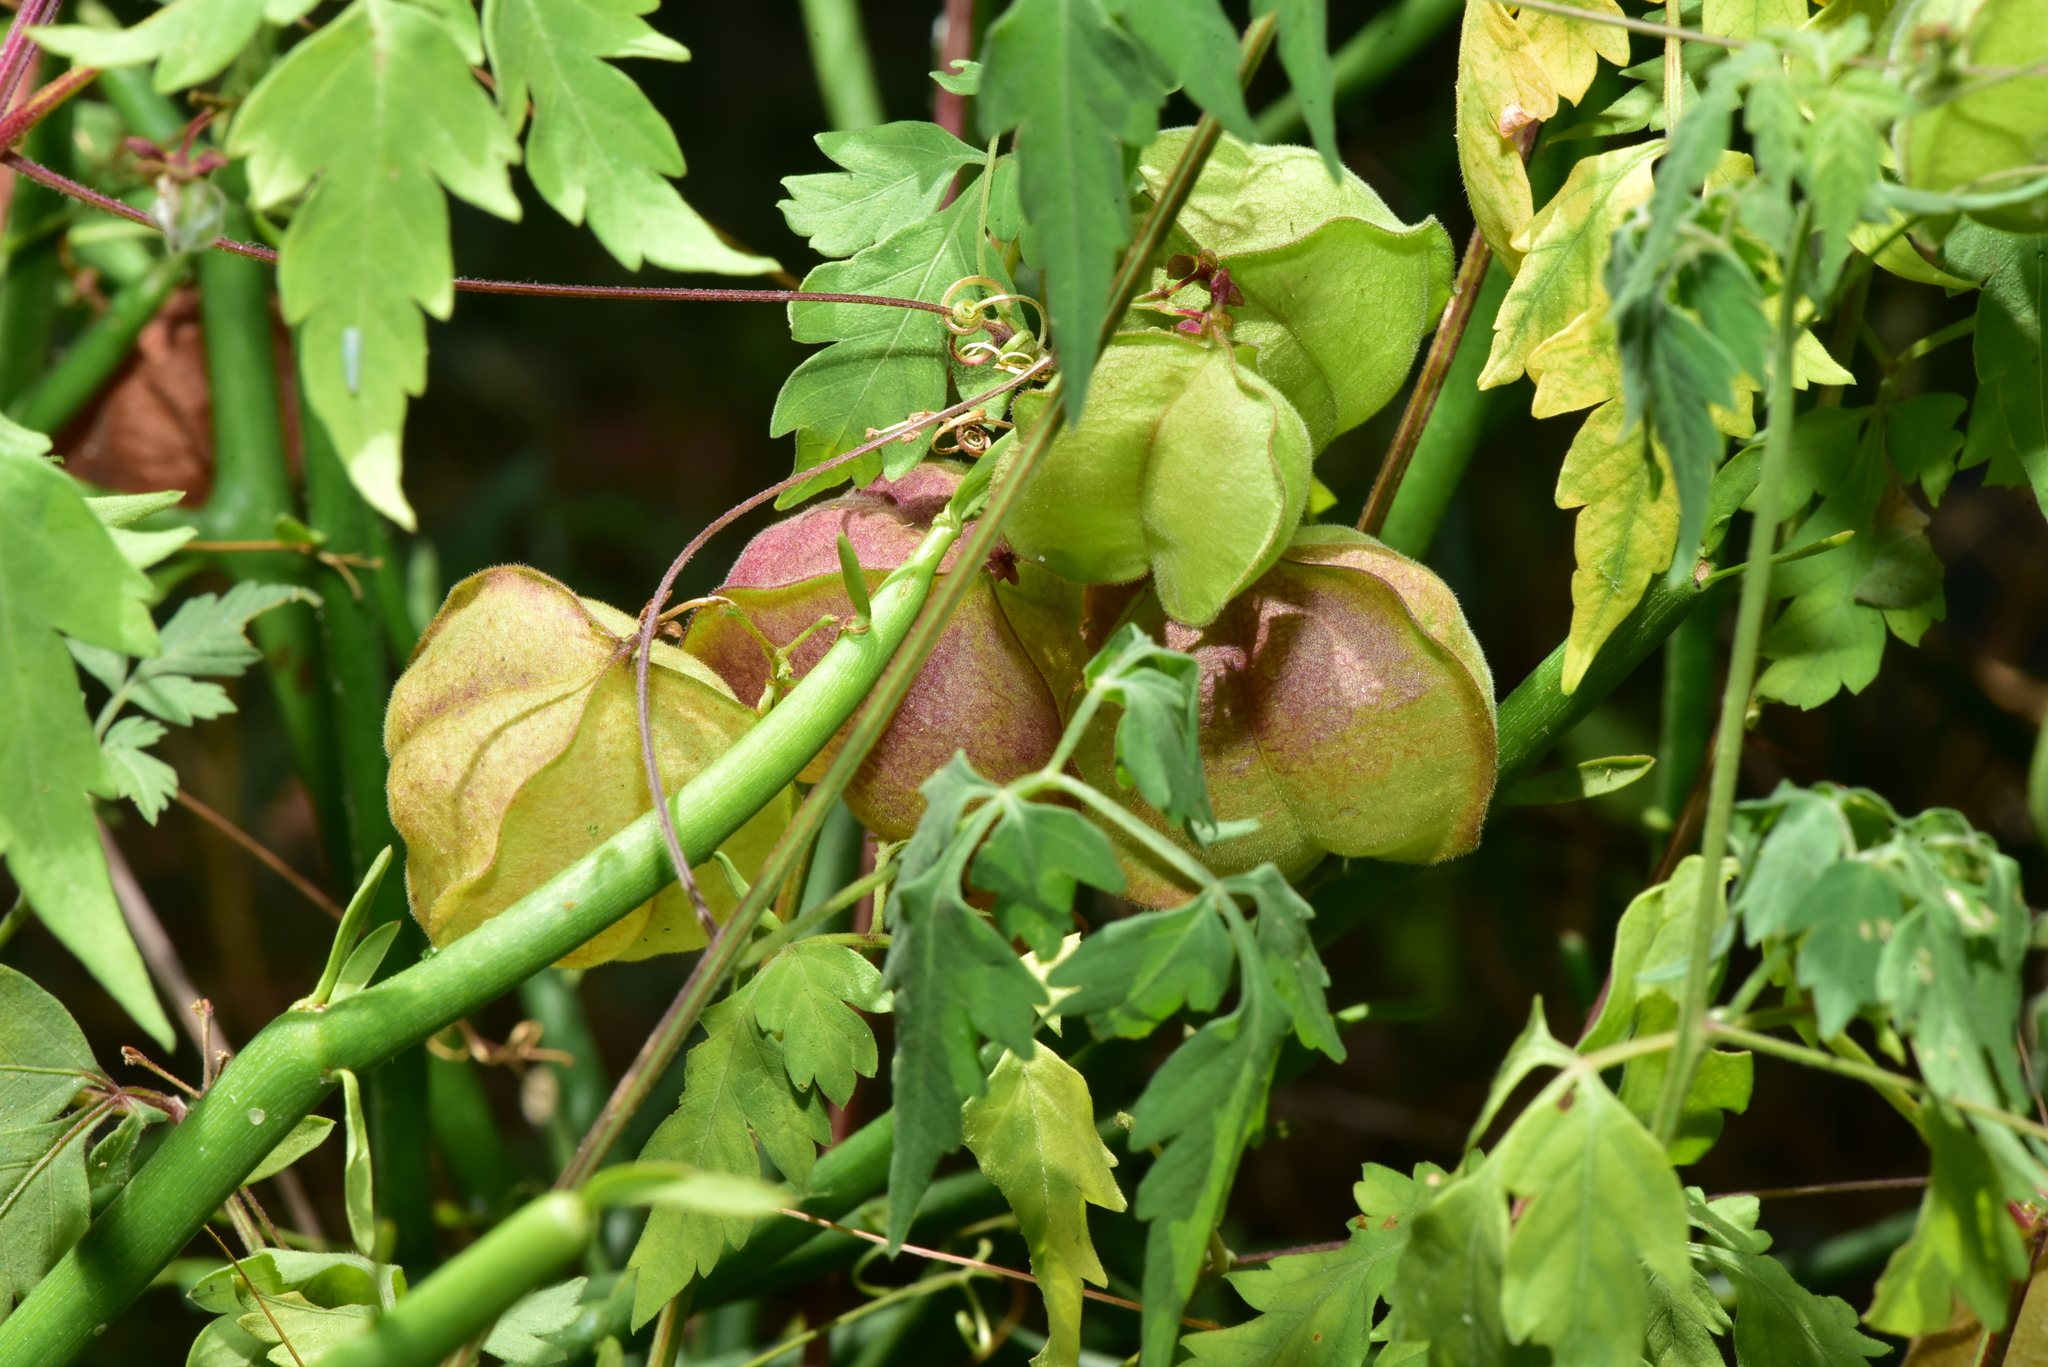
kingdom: Plantae
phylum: Tracheophyta
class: Magnoliopsida
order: Sapindales
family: Sapindaceae
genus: Cardiospermum
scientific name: Cardiospermum halicacabum
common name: Balloon vine
